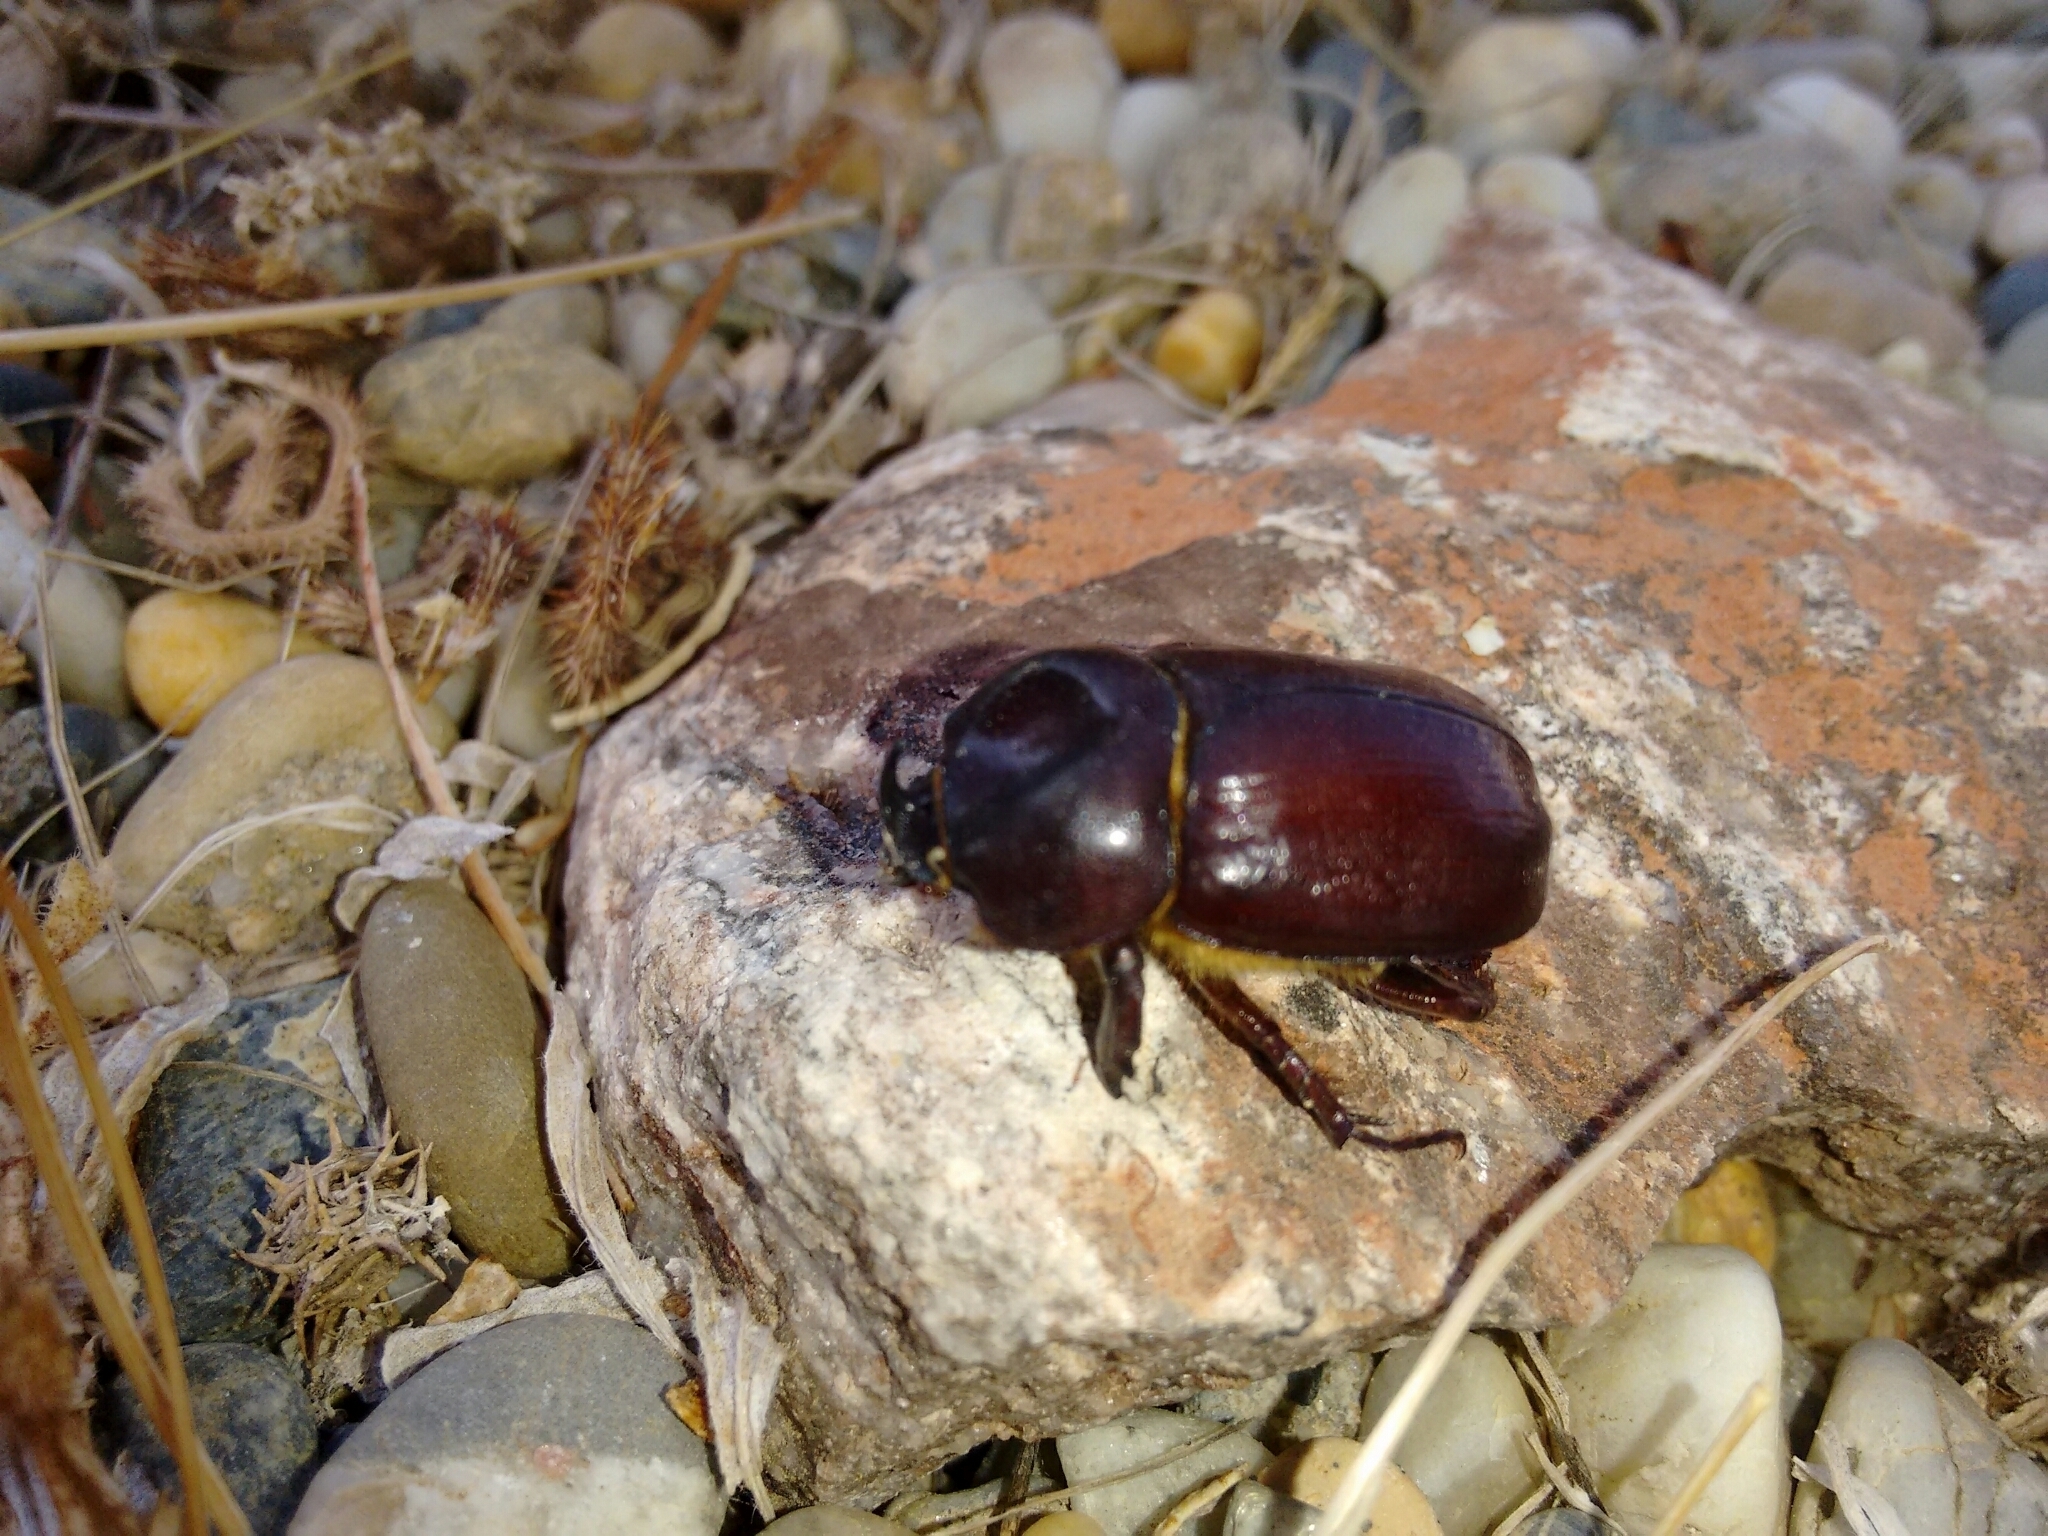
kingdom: Animalia
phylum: Arthropoda
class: Insecta
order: Coleoptera
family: Scarabaeidae
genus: Phyllognathus
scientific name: Phyllognathus excavatus
